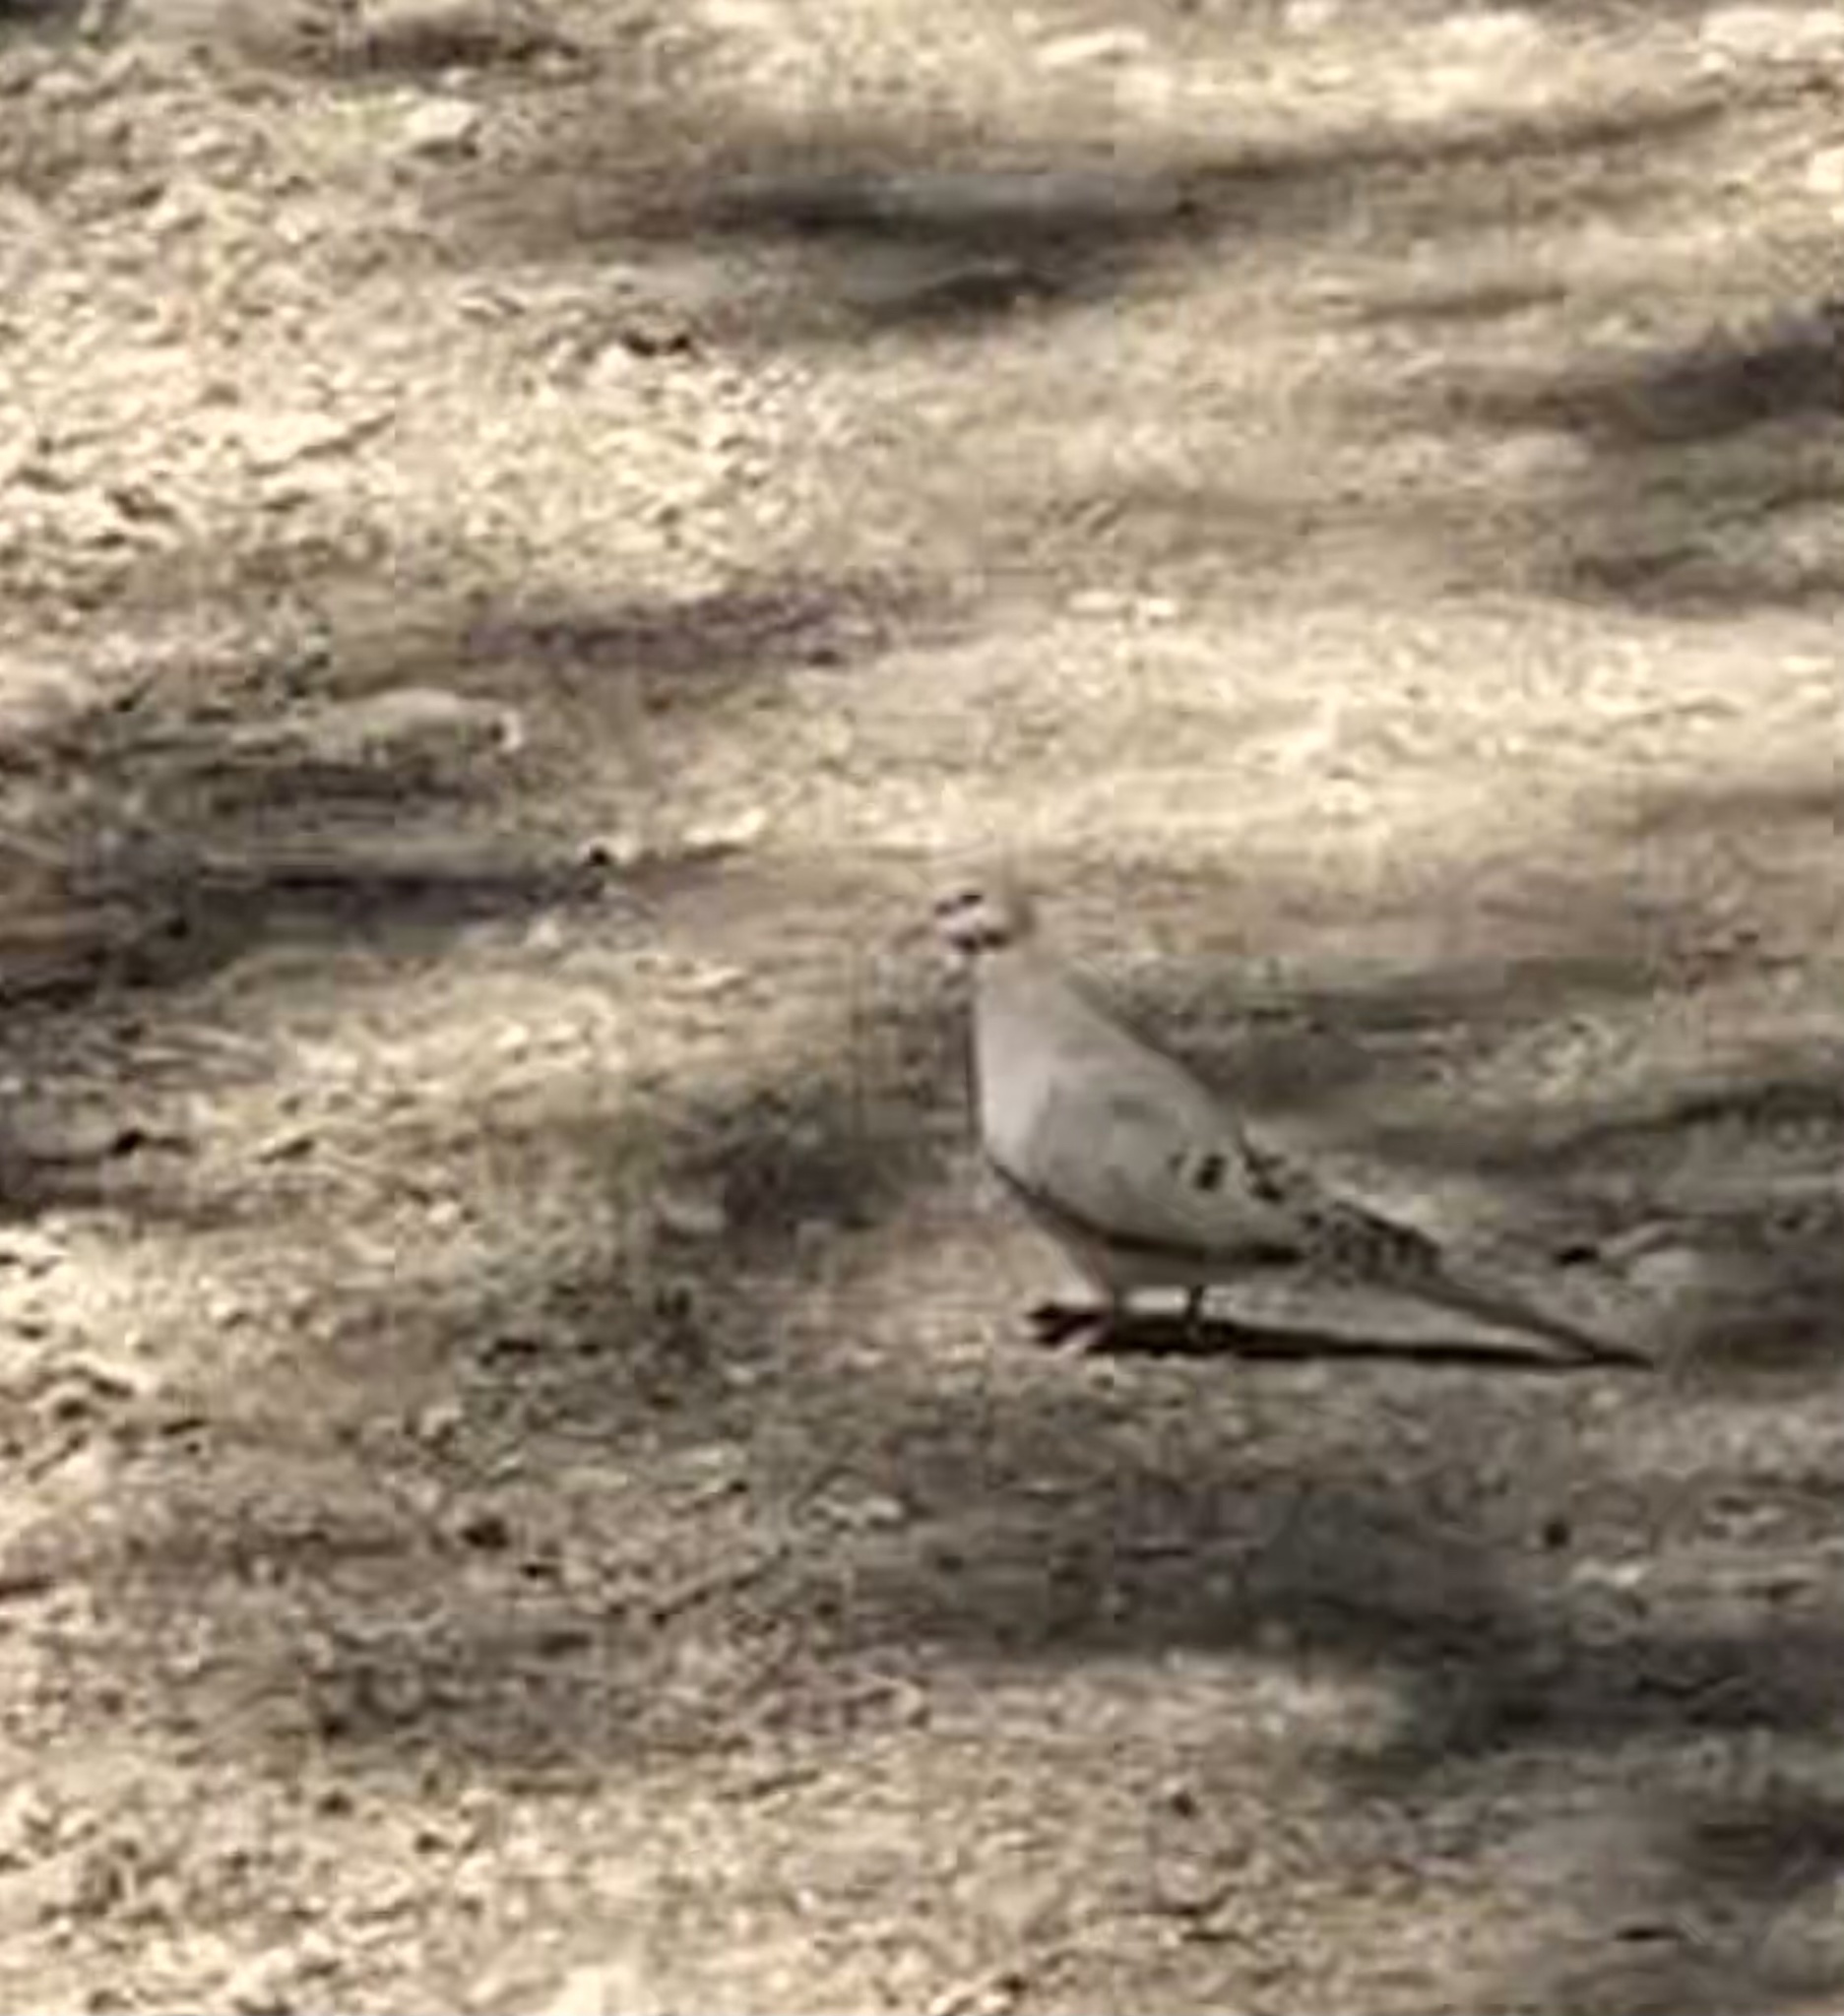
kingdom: Animalia
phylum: Chordata
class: Aves
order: Columbiformes
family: Columbidae
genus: Zenaida
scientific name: Zenaida macroura
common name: Mourning dove
